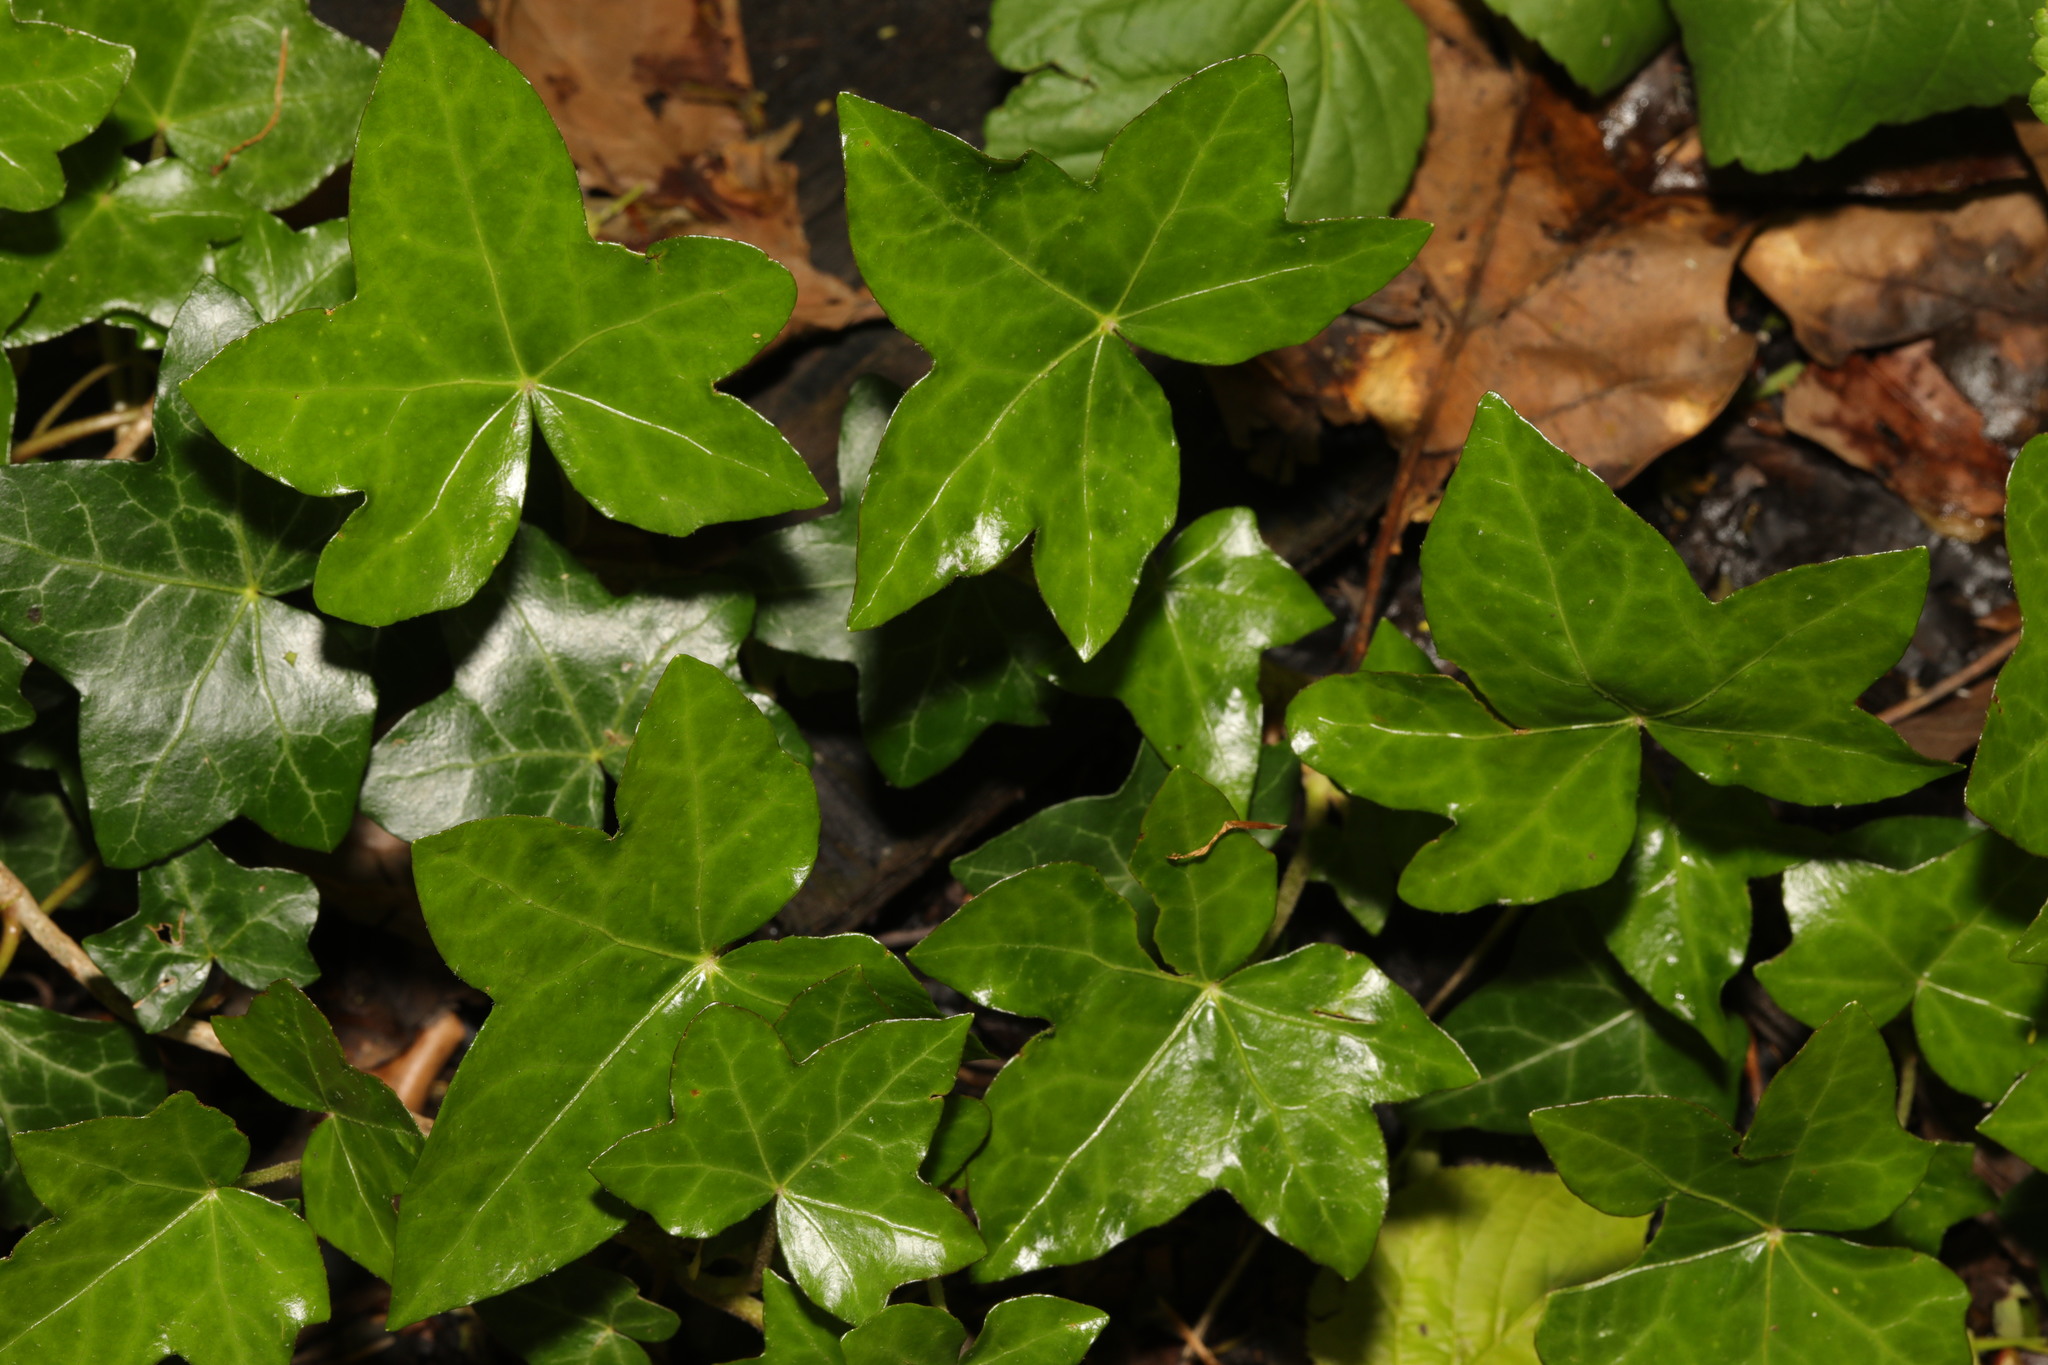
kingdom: Plantae
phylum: Tracheophyta
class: Magnoliopsida
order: Apiales
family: Araliaceae
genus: Hedera
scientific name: Hedera helix
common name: Ivy
